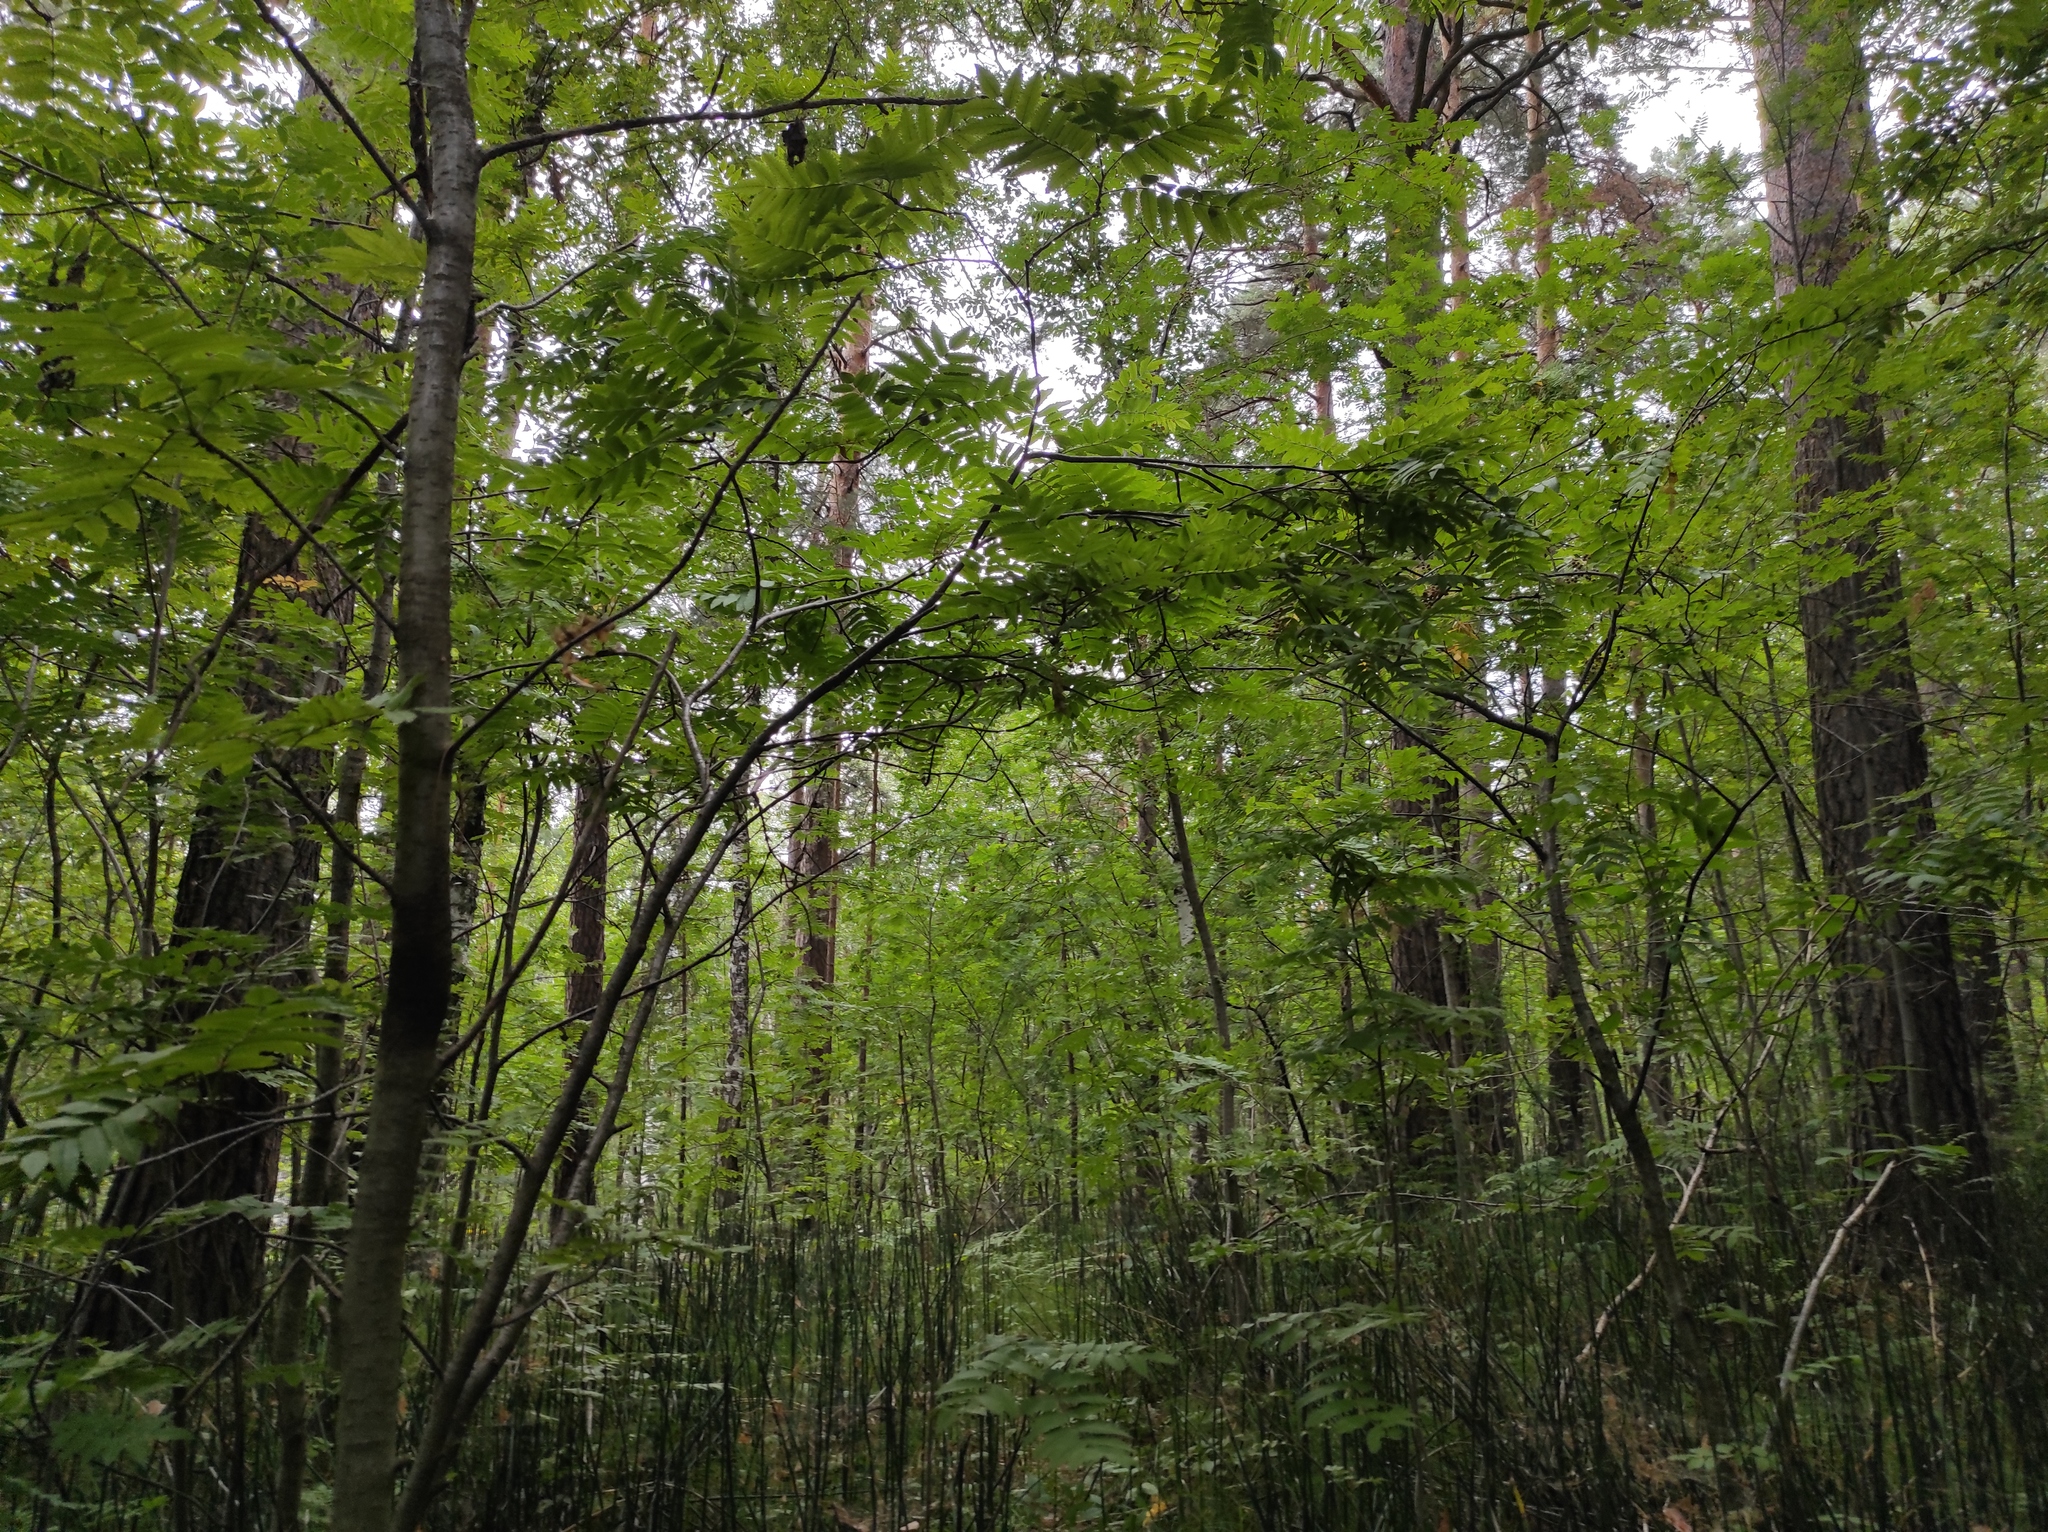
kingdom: Plantae
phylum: Tracheophyta
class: Polypodiopsida
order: Equisetales
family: Equisetaceae
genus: Equisetum
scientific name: Equisetum hyemale
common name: Rough horsetail
